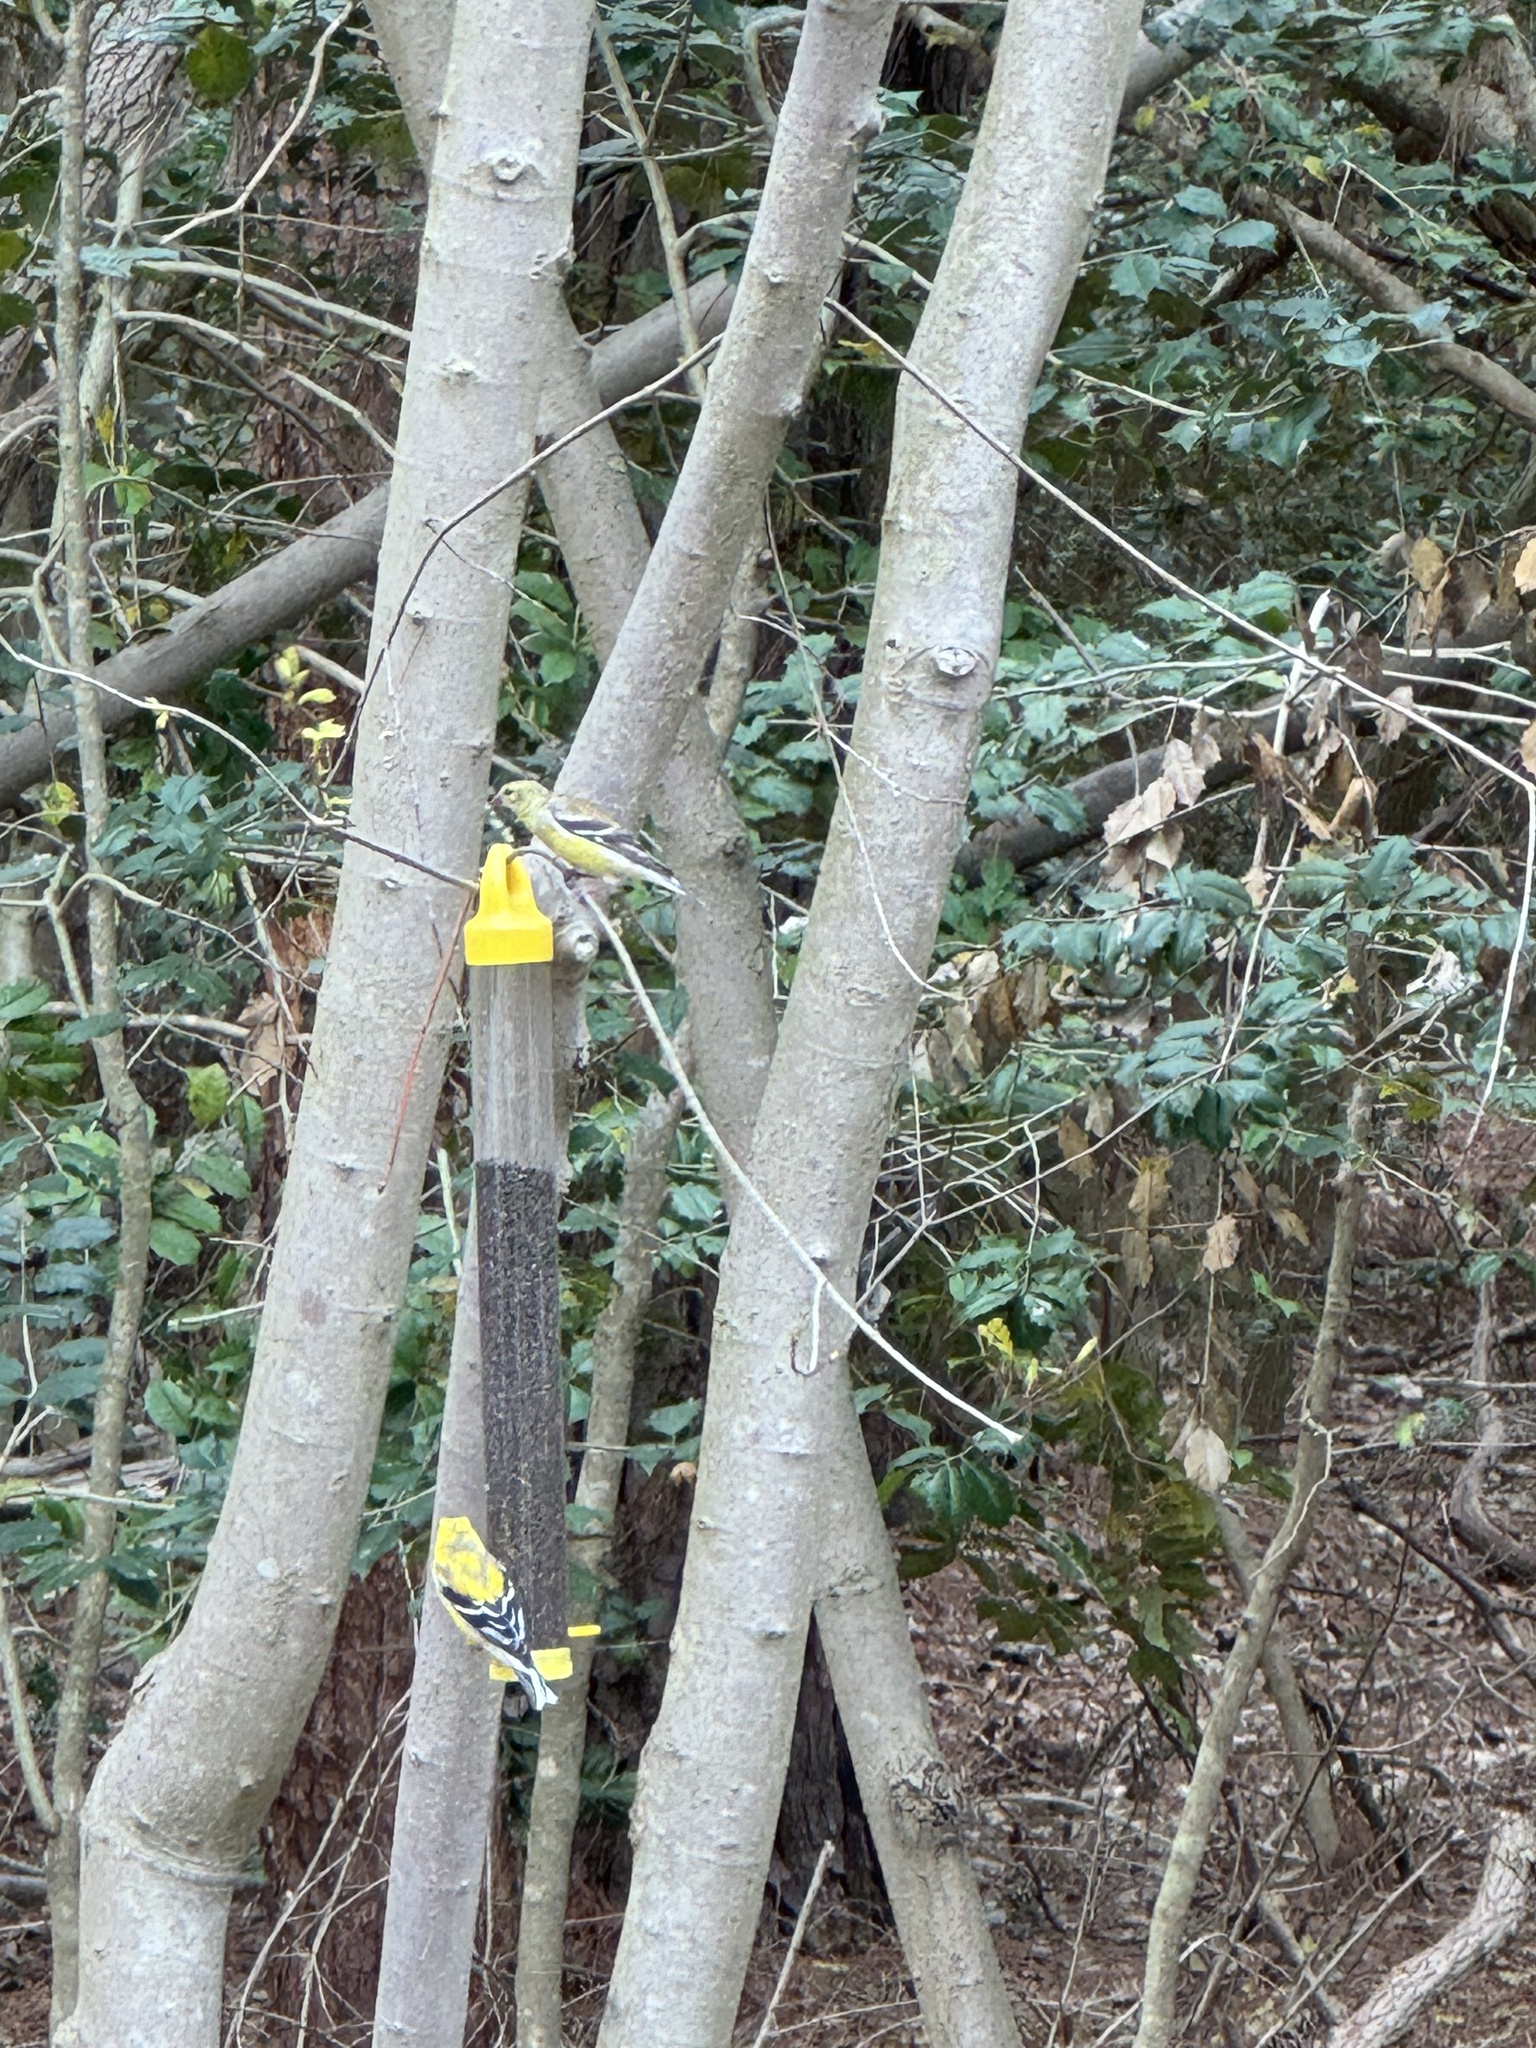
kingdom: Animalia
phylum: Chordata
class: Aves
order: Passeriformes
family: Fringillidae
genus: Spinus
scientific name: Spinus tristis
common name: American goldfinch
